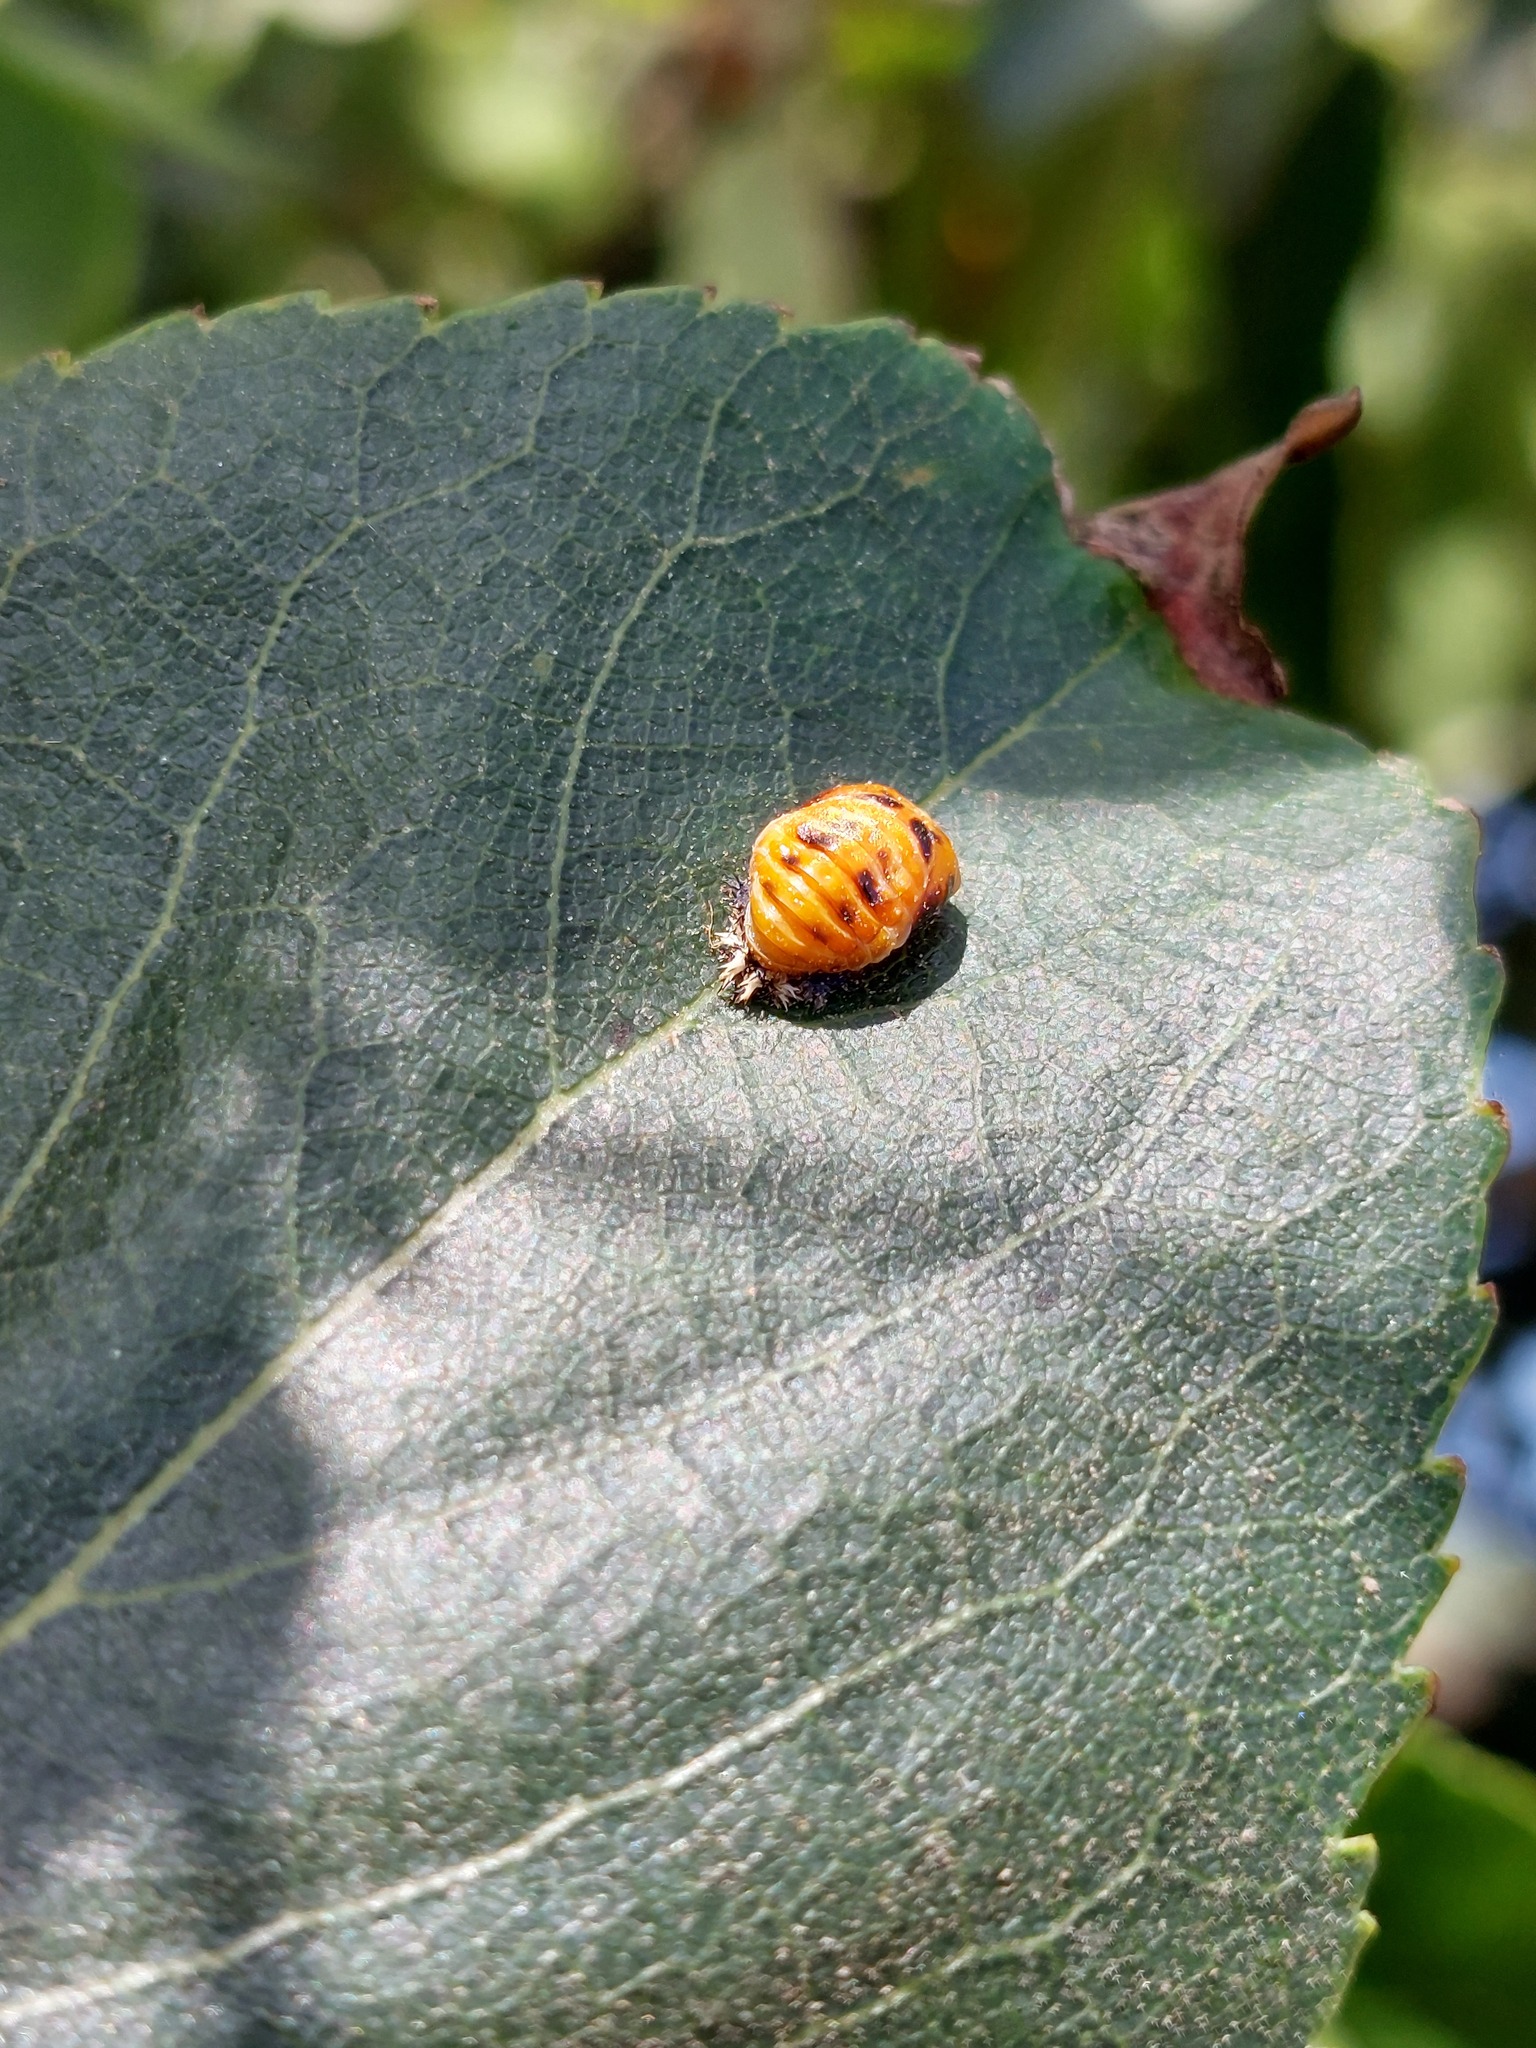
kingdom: Animalia
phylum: Arthropoda
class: Insecta
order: Coleoptera
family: Coccinellidae
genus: Harmonia
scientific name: Harmonia axyridis
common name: Harlequin ladybird
